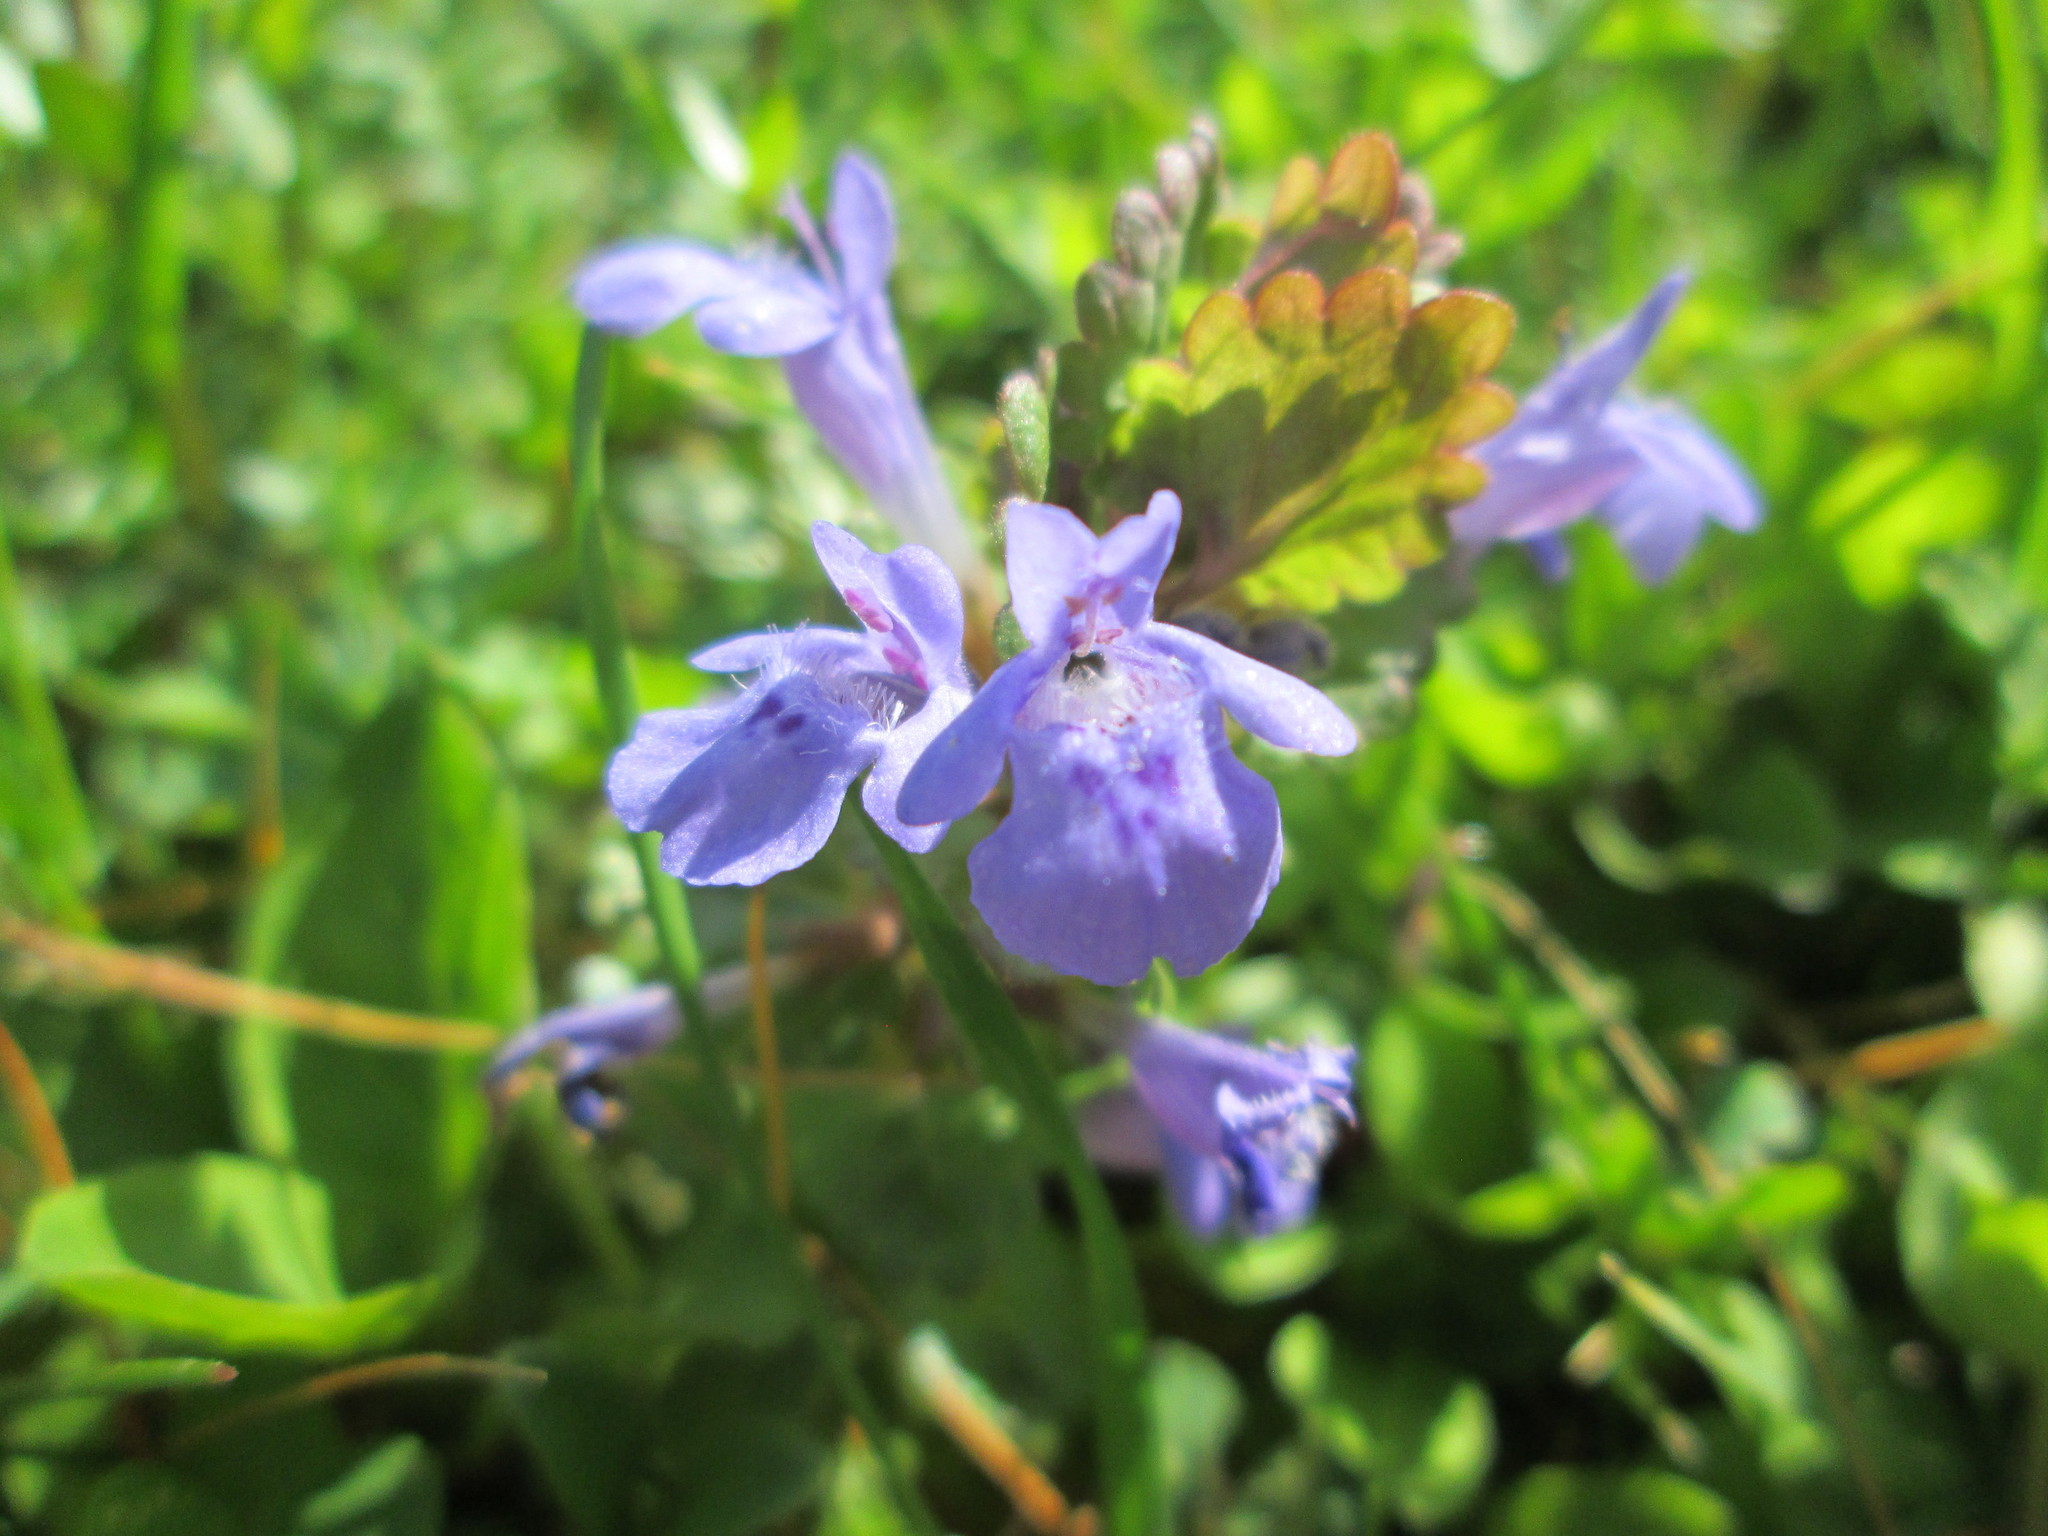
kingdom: Plantae
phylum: Tracheophyta
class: Magnoliopsida
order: Lamiales
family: Lamiaceae
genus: Glechoma
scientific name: Glechoma hederacea
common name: Ground ivy
